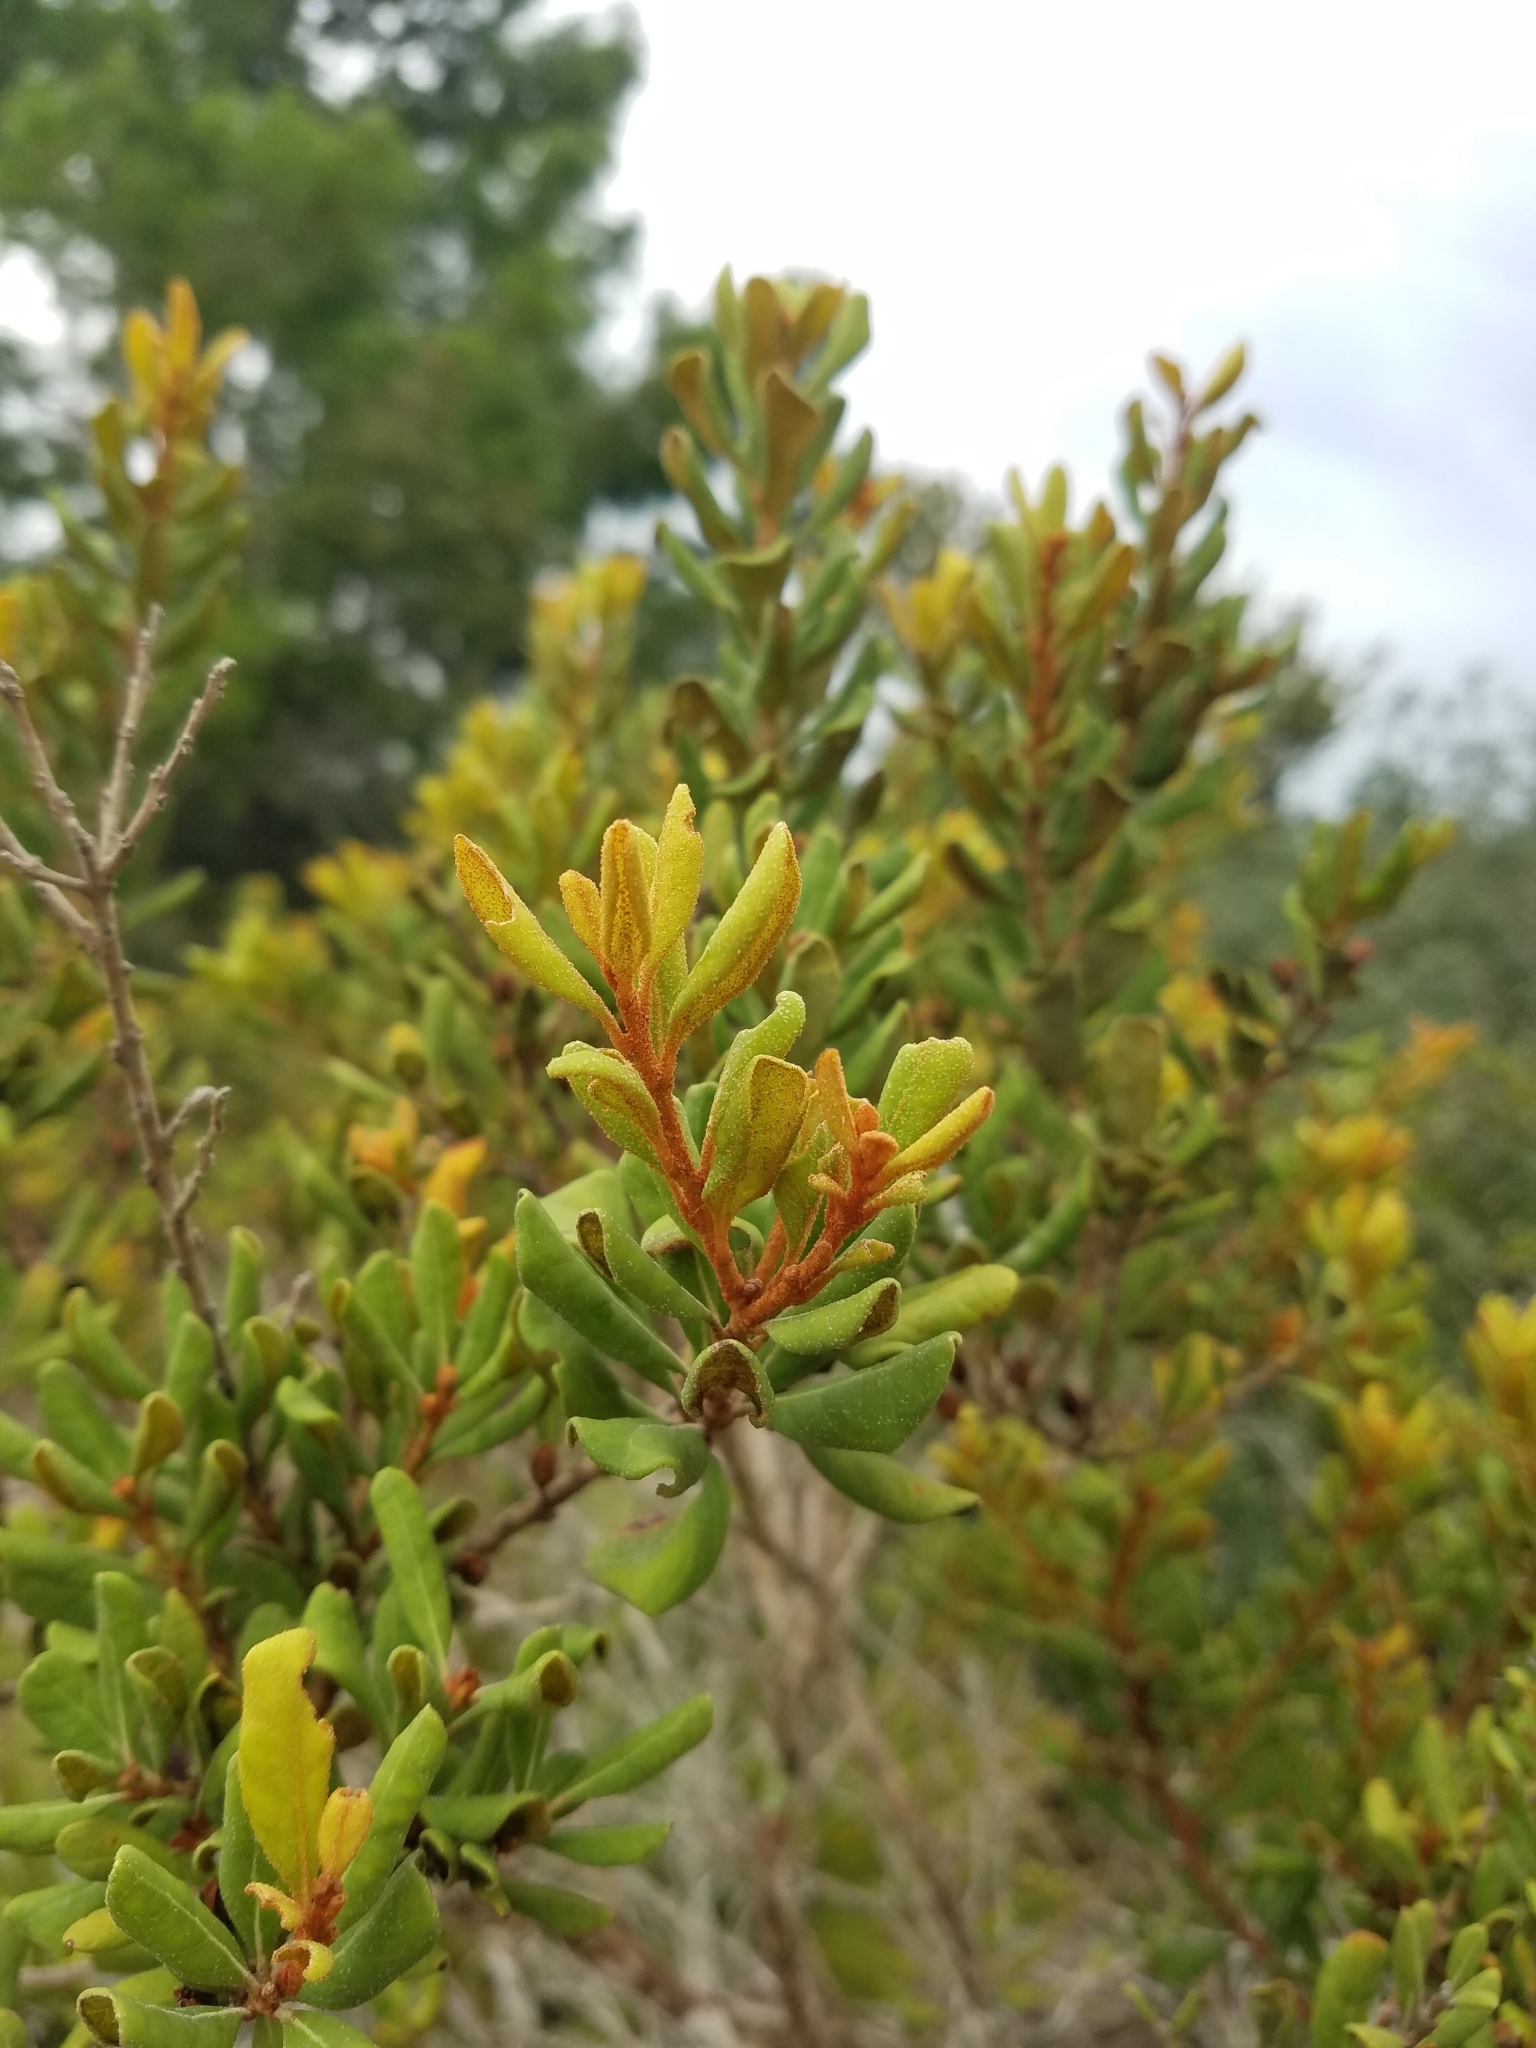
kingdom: Plantae
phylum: Tracheophyta
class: Magnoliopsida
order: Ericales
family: Ericaceae
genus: Lyonia
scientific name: Lyonia ferruginea
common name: Rusty lyonia
